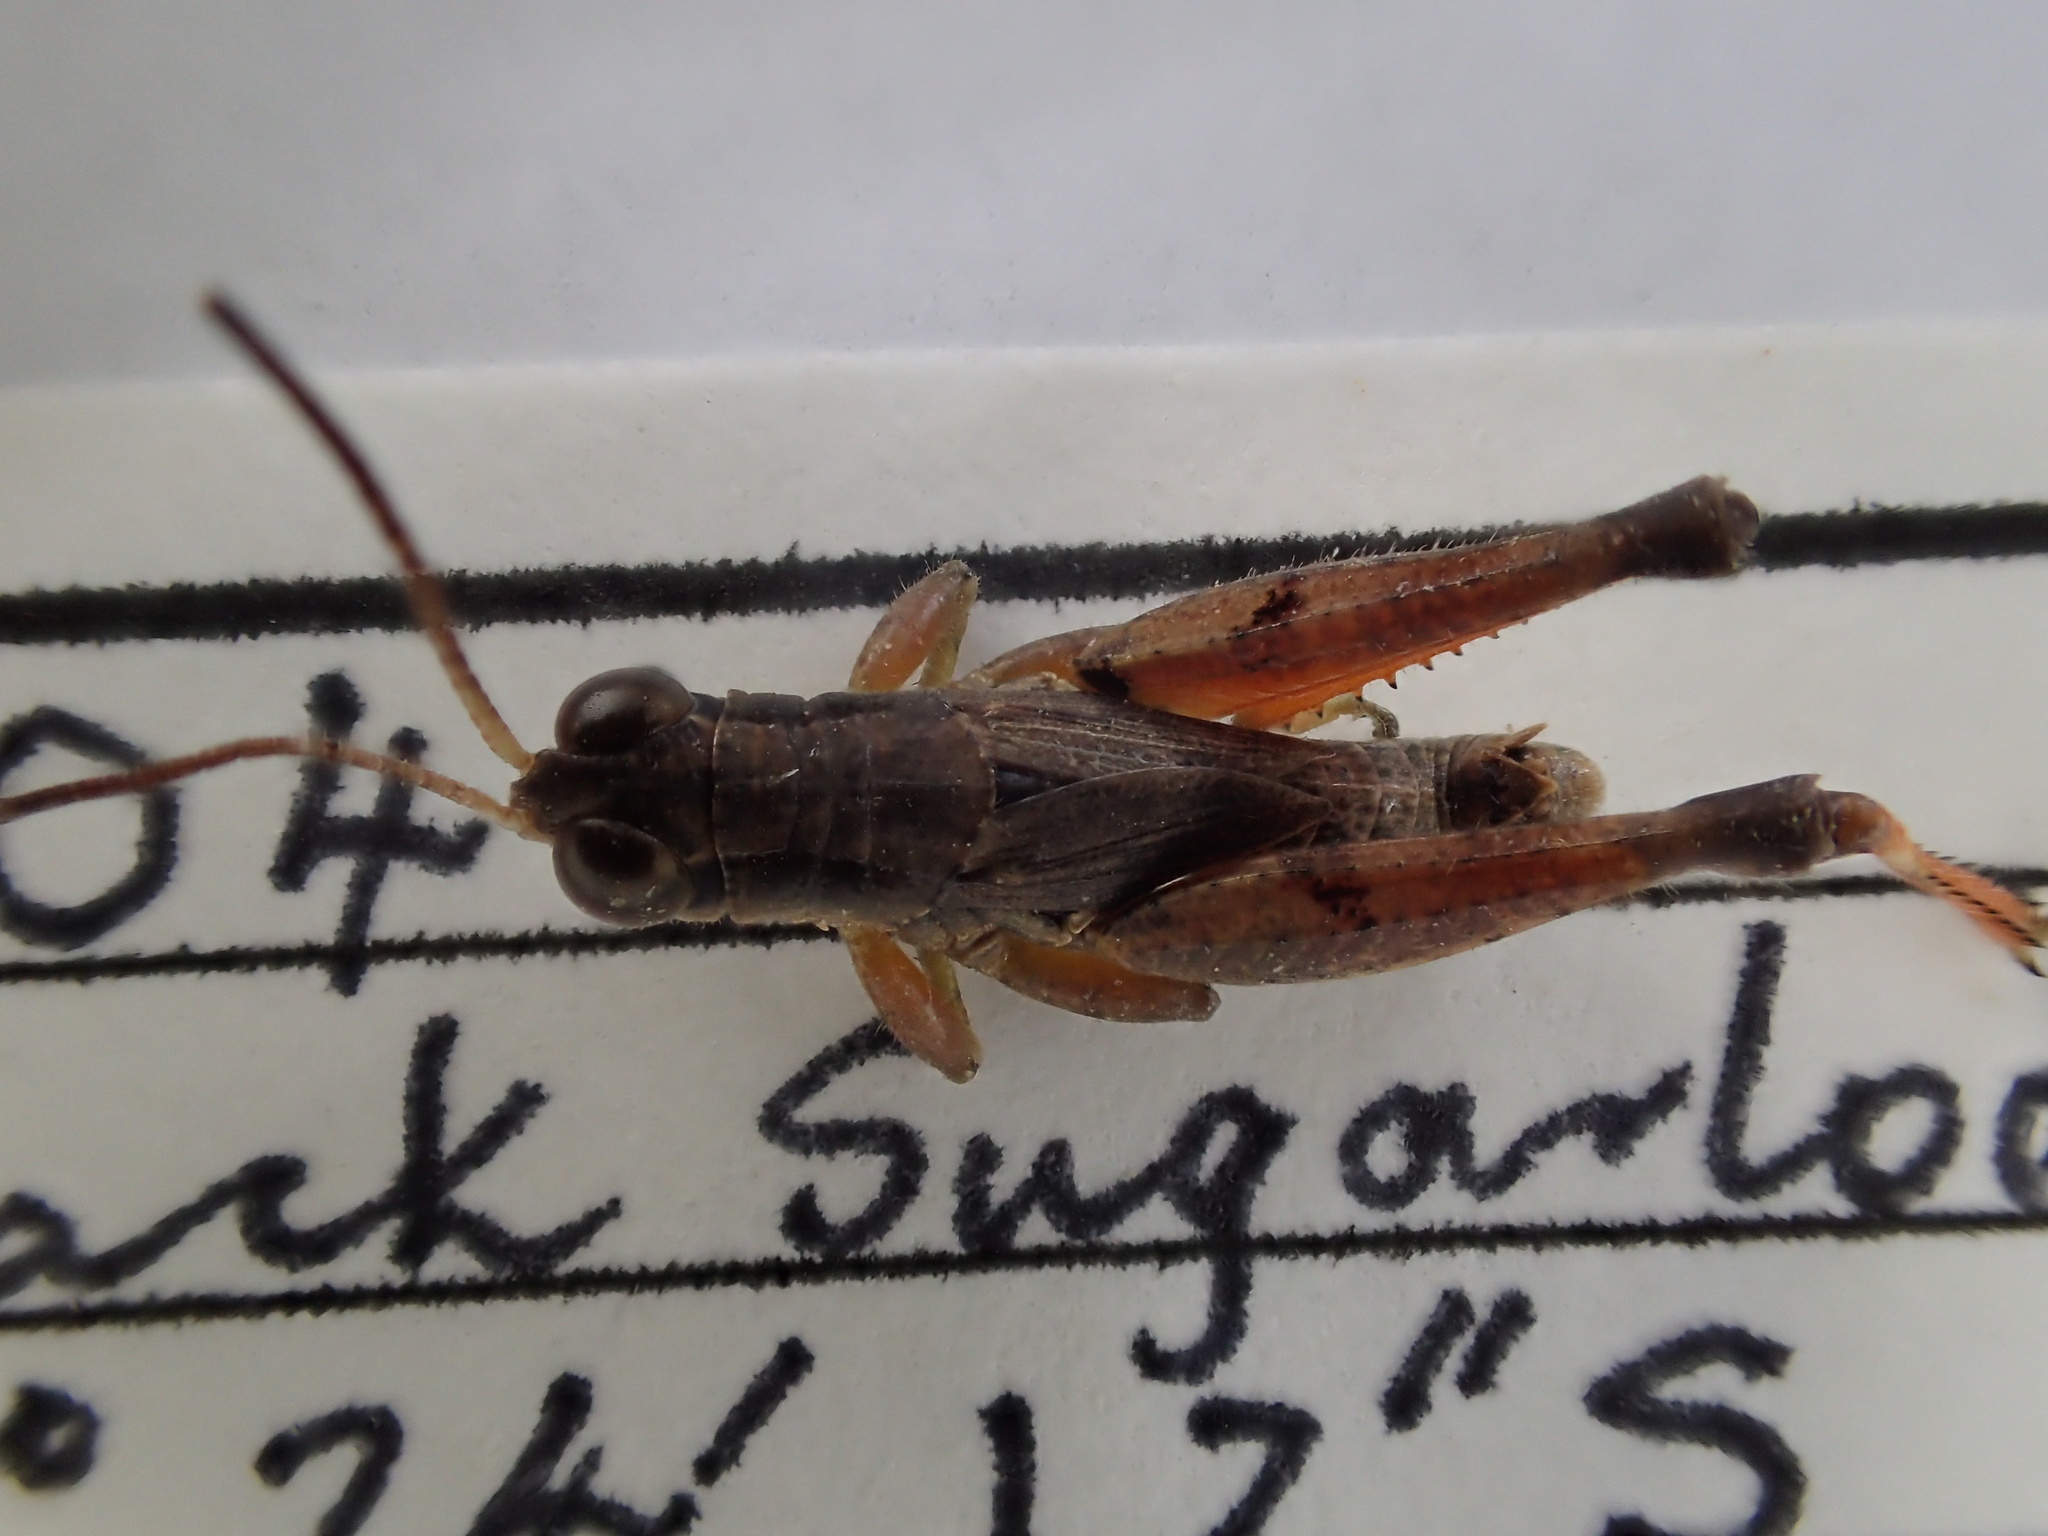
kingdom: Animalia
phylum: Arthropoda
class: Insecta
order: Orthoptera
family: Acrididae
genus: Phaulacridium
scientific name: Phaulacridium vittatum
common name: Wingless grasshopper
